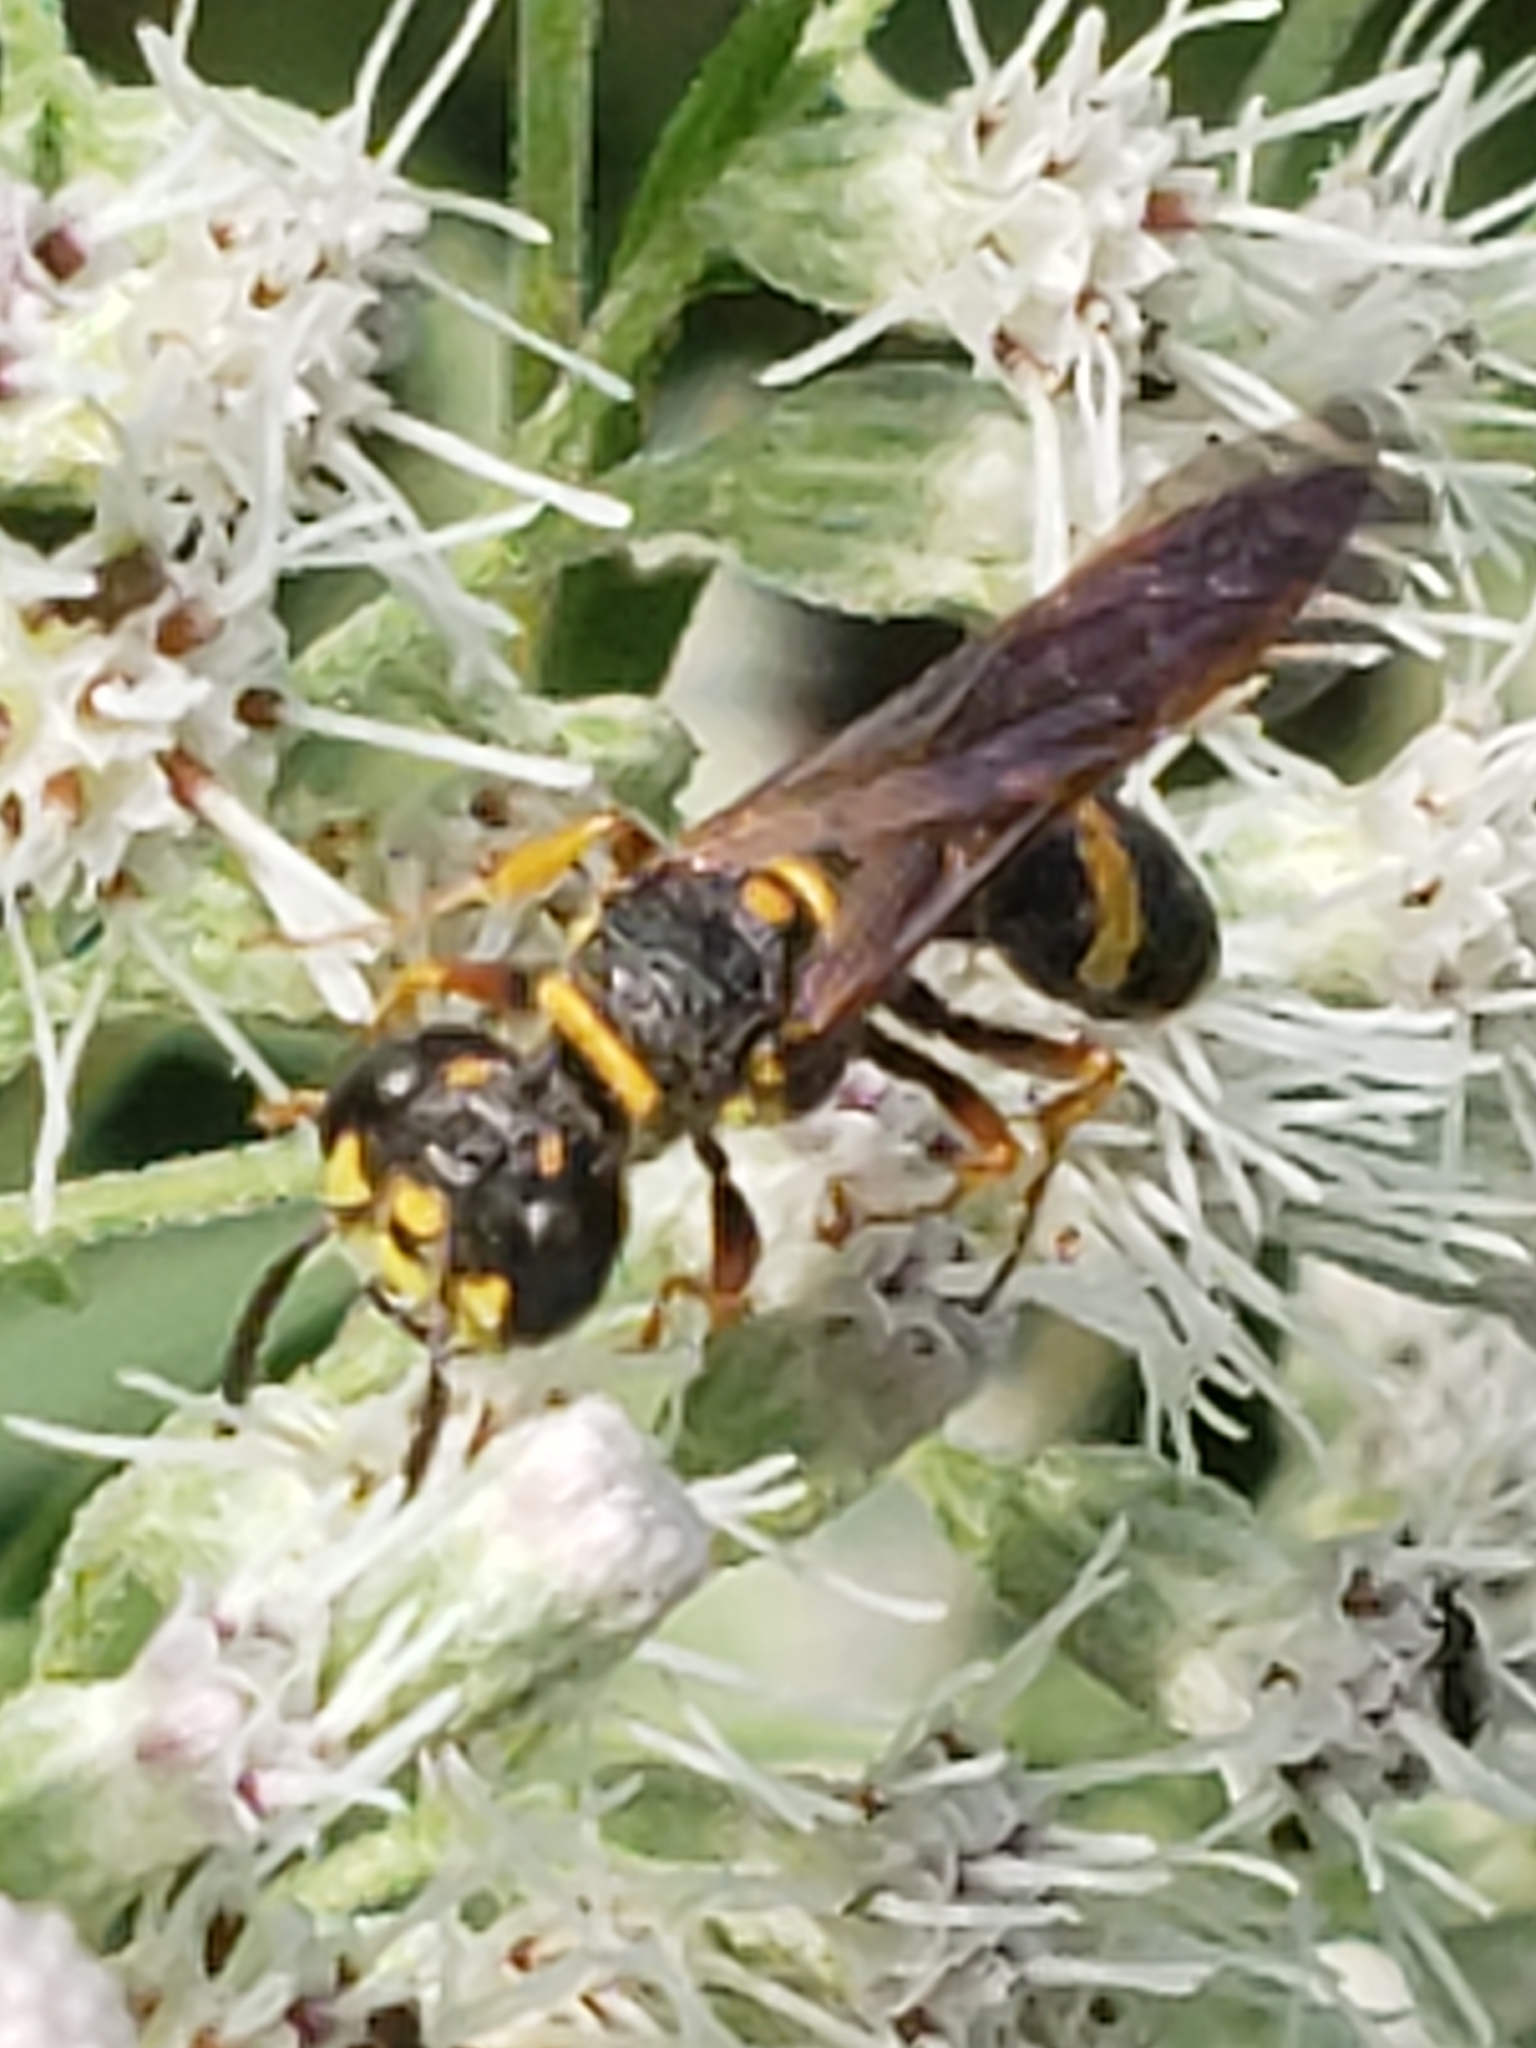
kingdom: Animalia
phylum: Arthropoda
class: Insecta
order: Hymenoptera
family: Crabronidae
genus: Philanthus
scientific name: Philanthus gibbosus
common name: Humped beewolf
